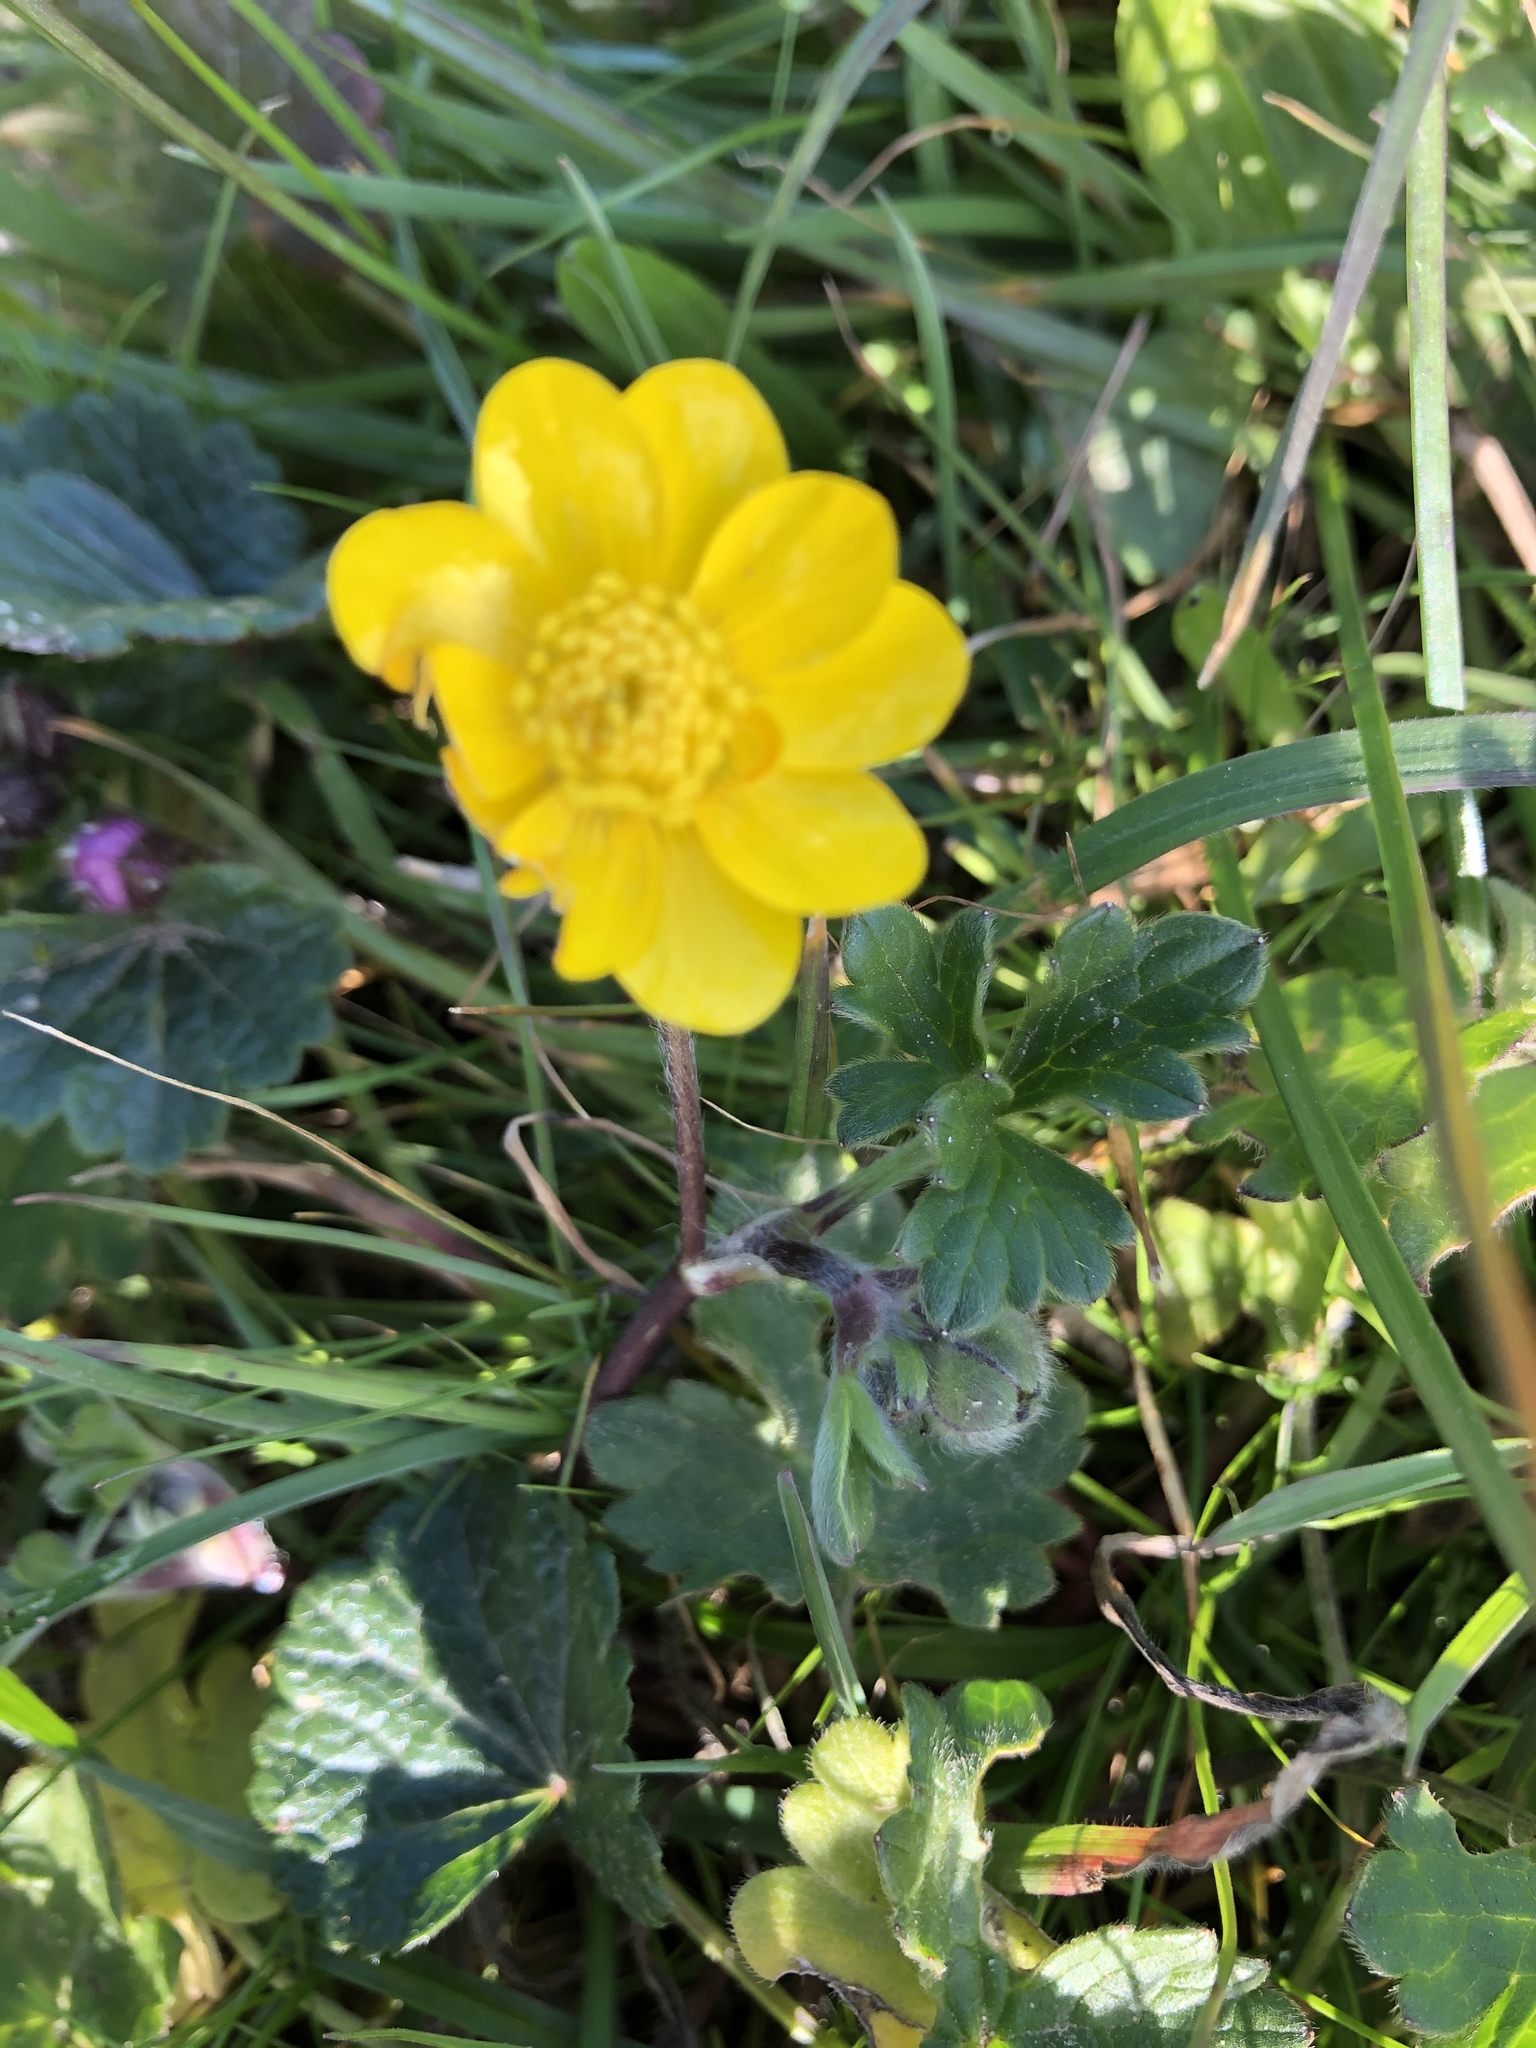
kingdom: Plantae
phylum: Tracheophyta
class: Magnoliopsida
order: Ranunculales
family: Ranunculaceae
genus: Ranunculus
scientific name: Ranunculus californicus
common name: California buttercup
